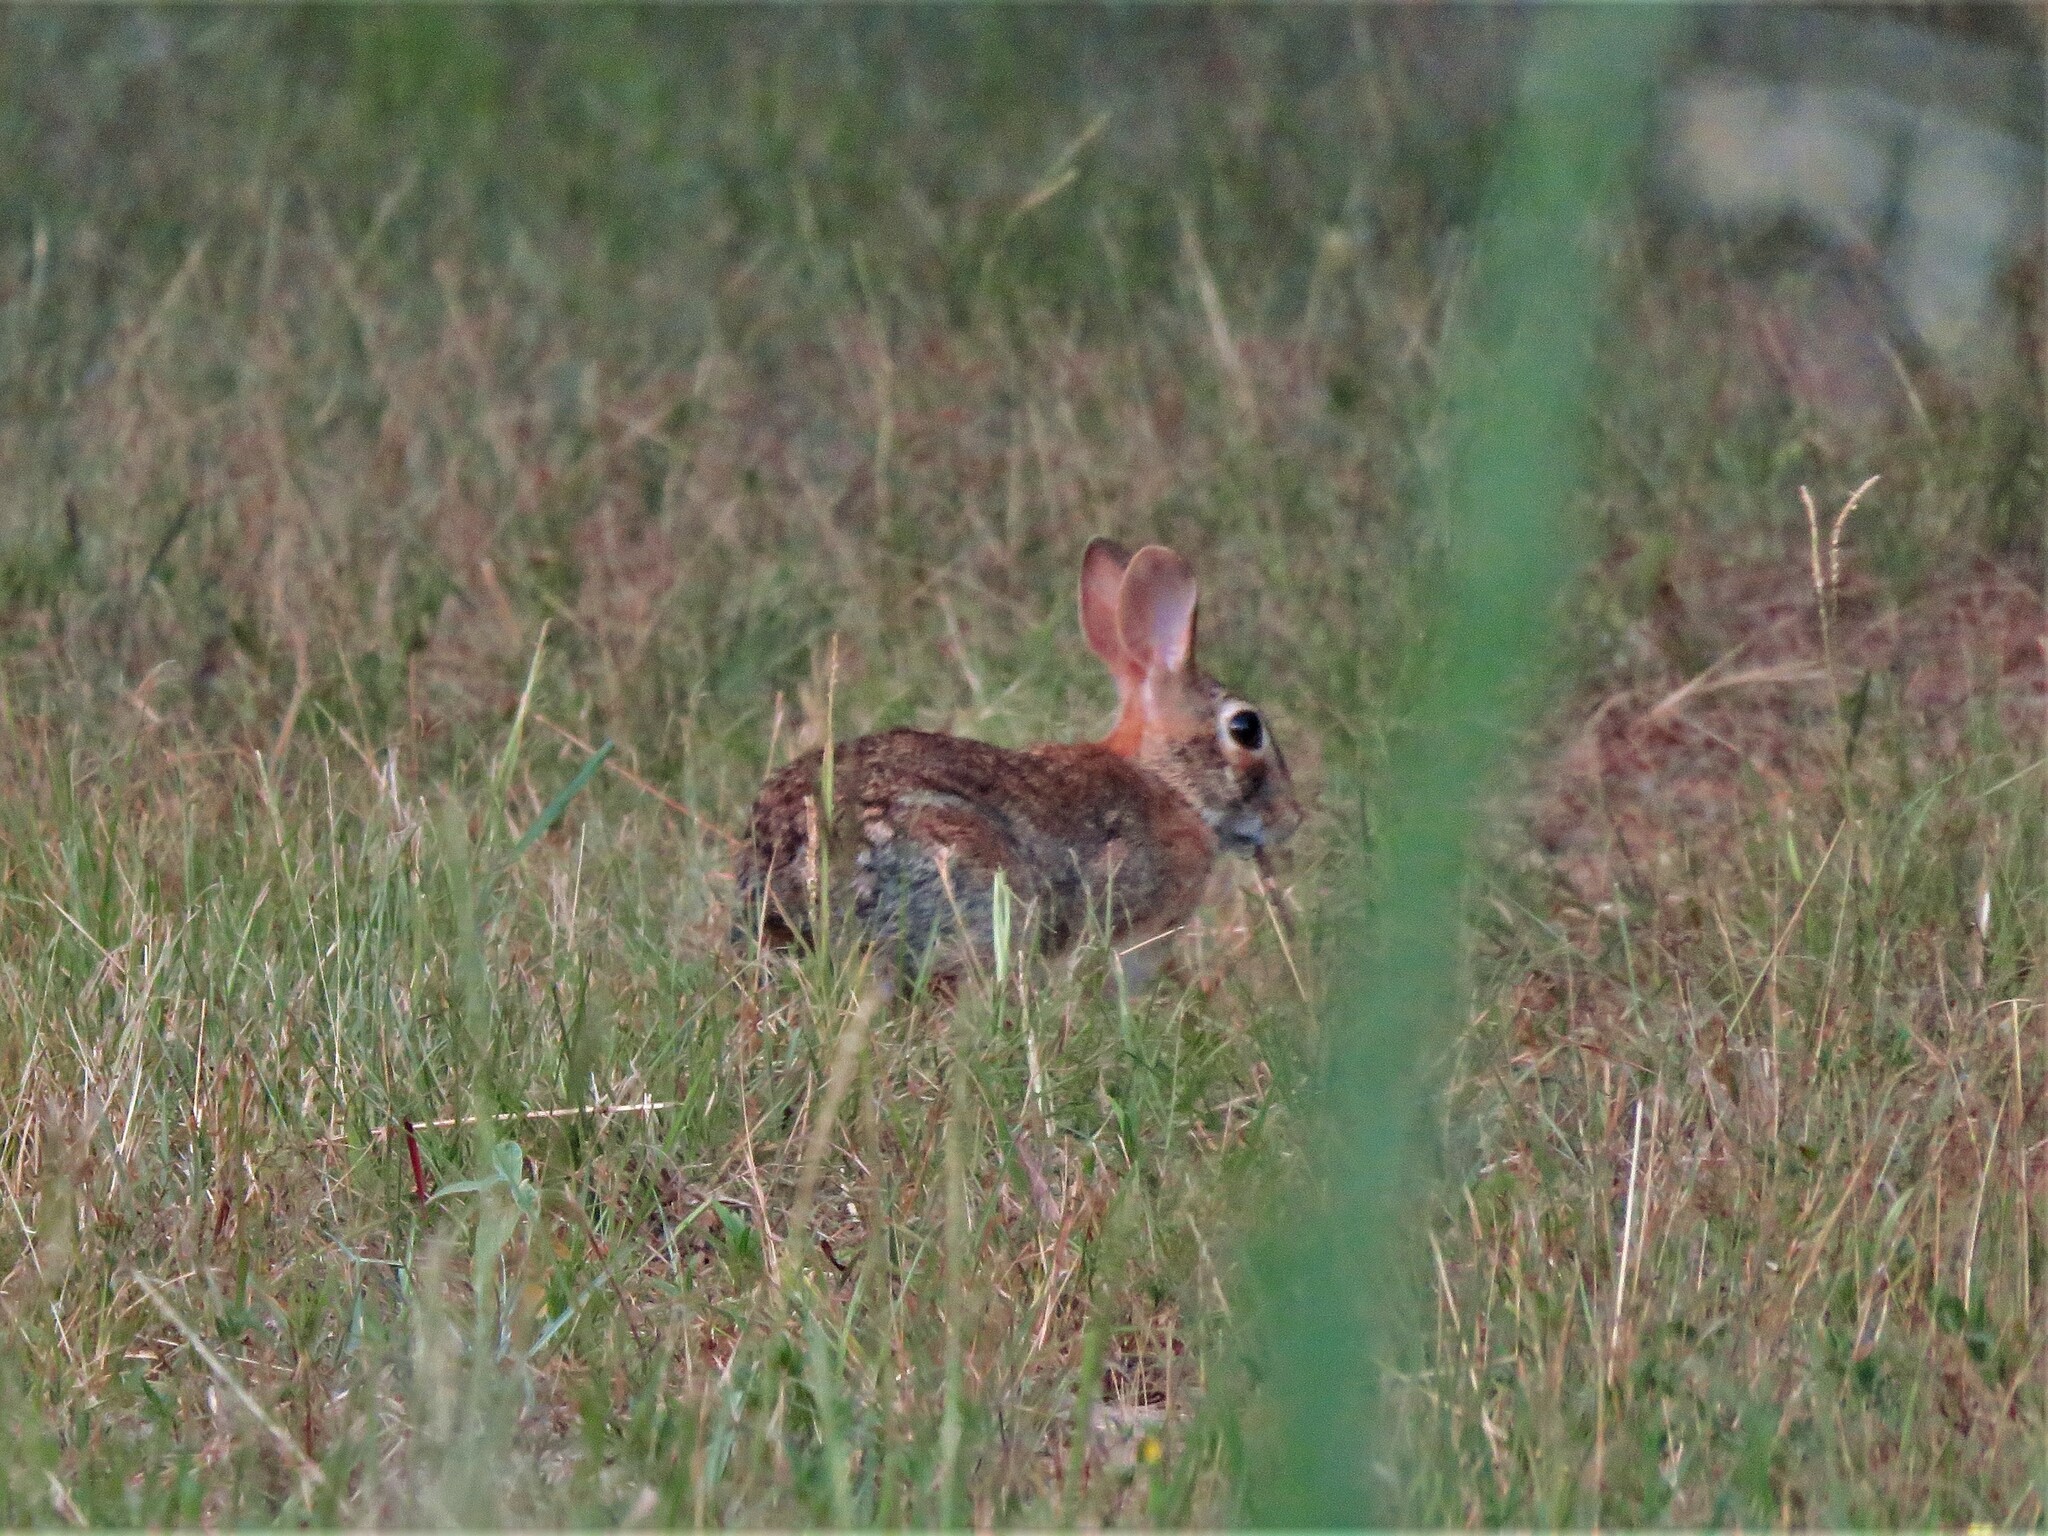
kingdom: Animalia
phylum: Chordata
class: Mammalia
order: Lagomorpha
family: Leporidae
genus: Sylvilagus
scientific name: Sylvilagus floridanus
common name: Eastern cottontail
